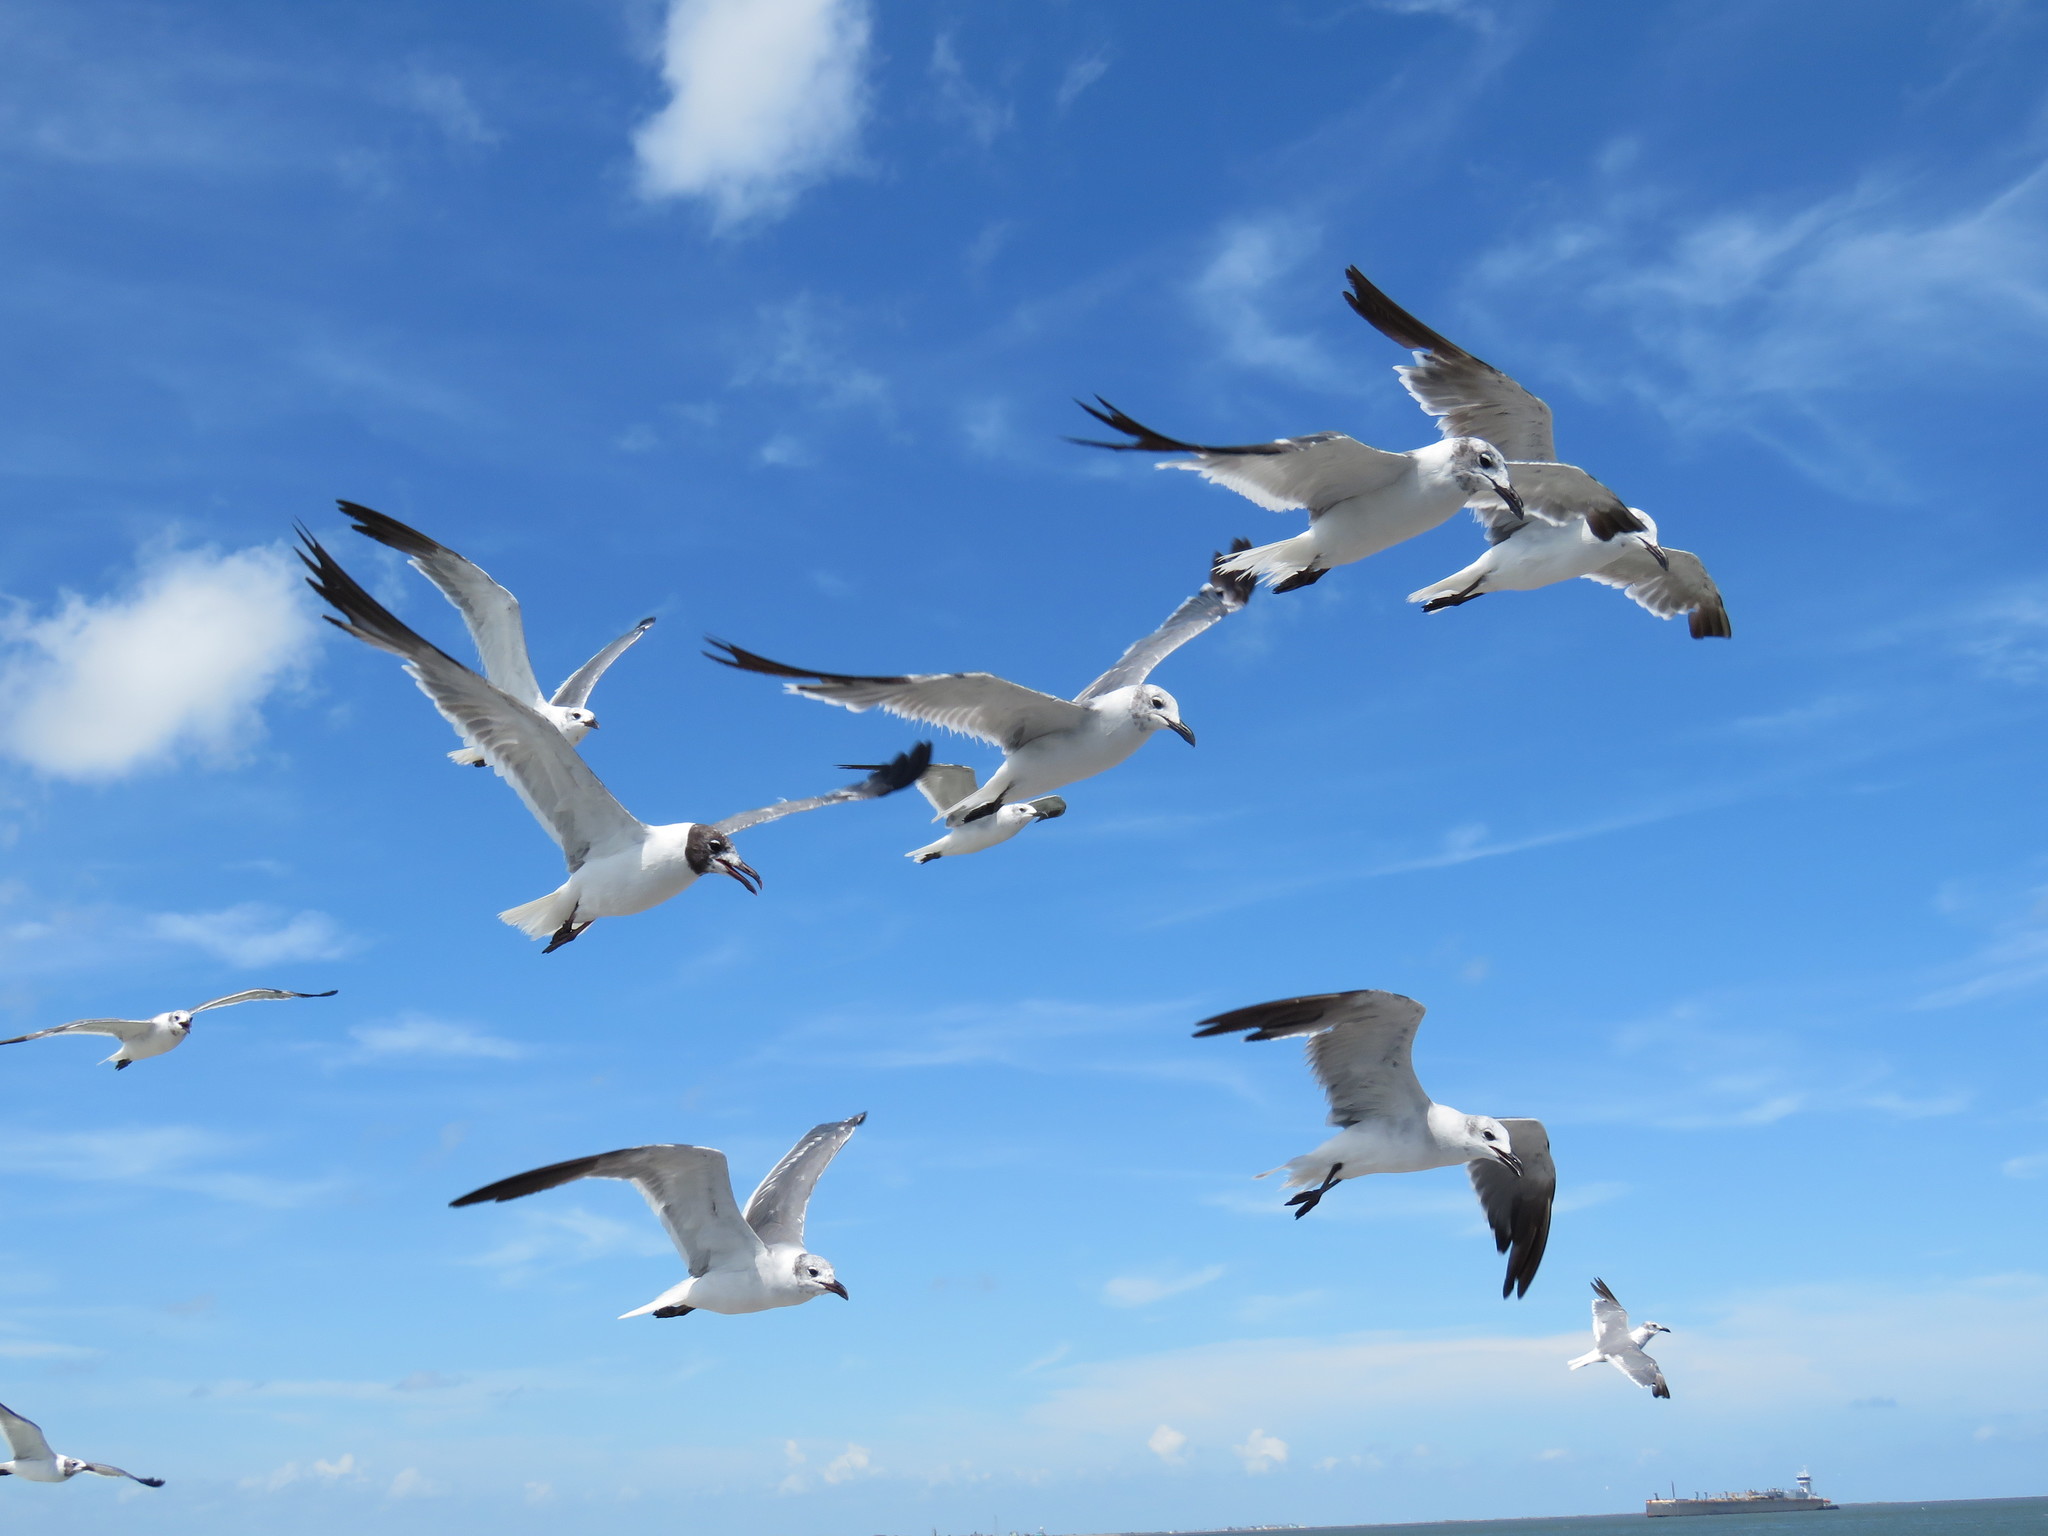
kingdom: Animalia
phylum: Chordata
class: Aves
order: Charadriiformes
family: Laridae
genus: Leucophaeus
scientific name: Leucophaeus atricilla
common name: Laughing gull
